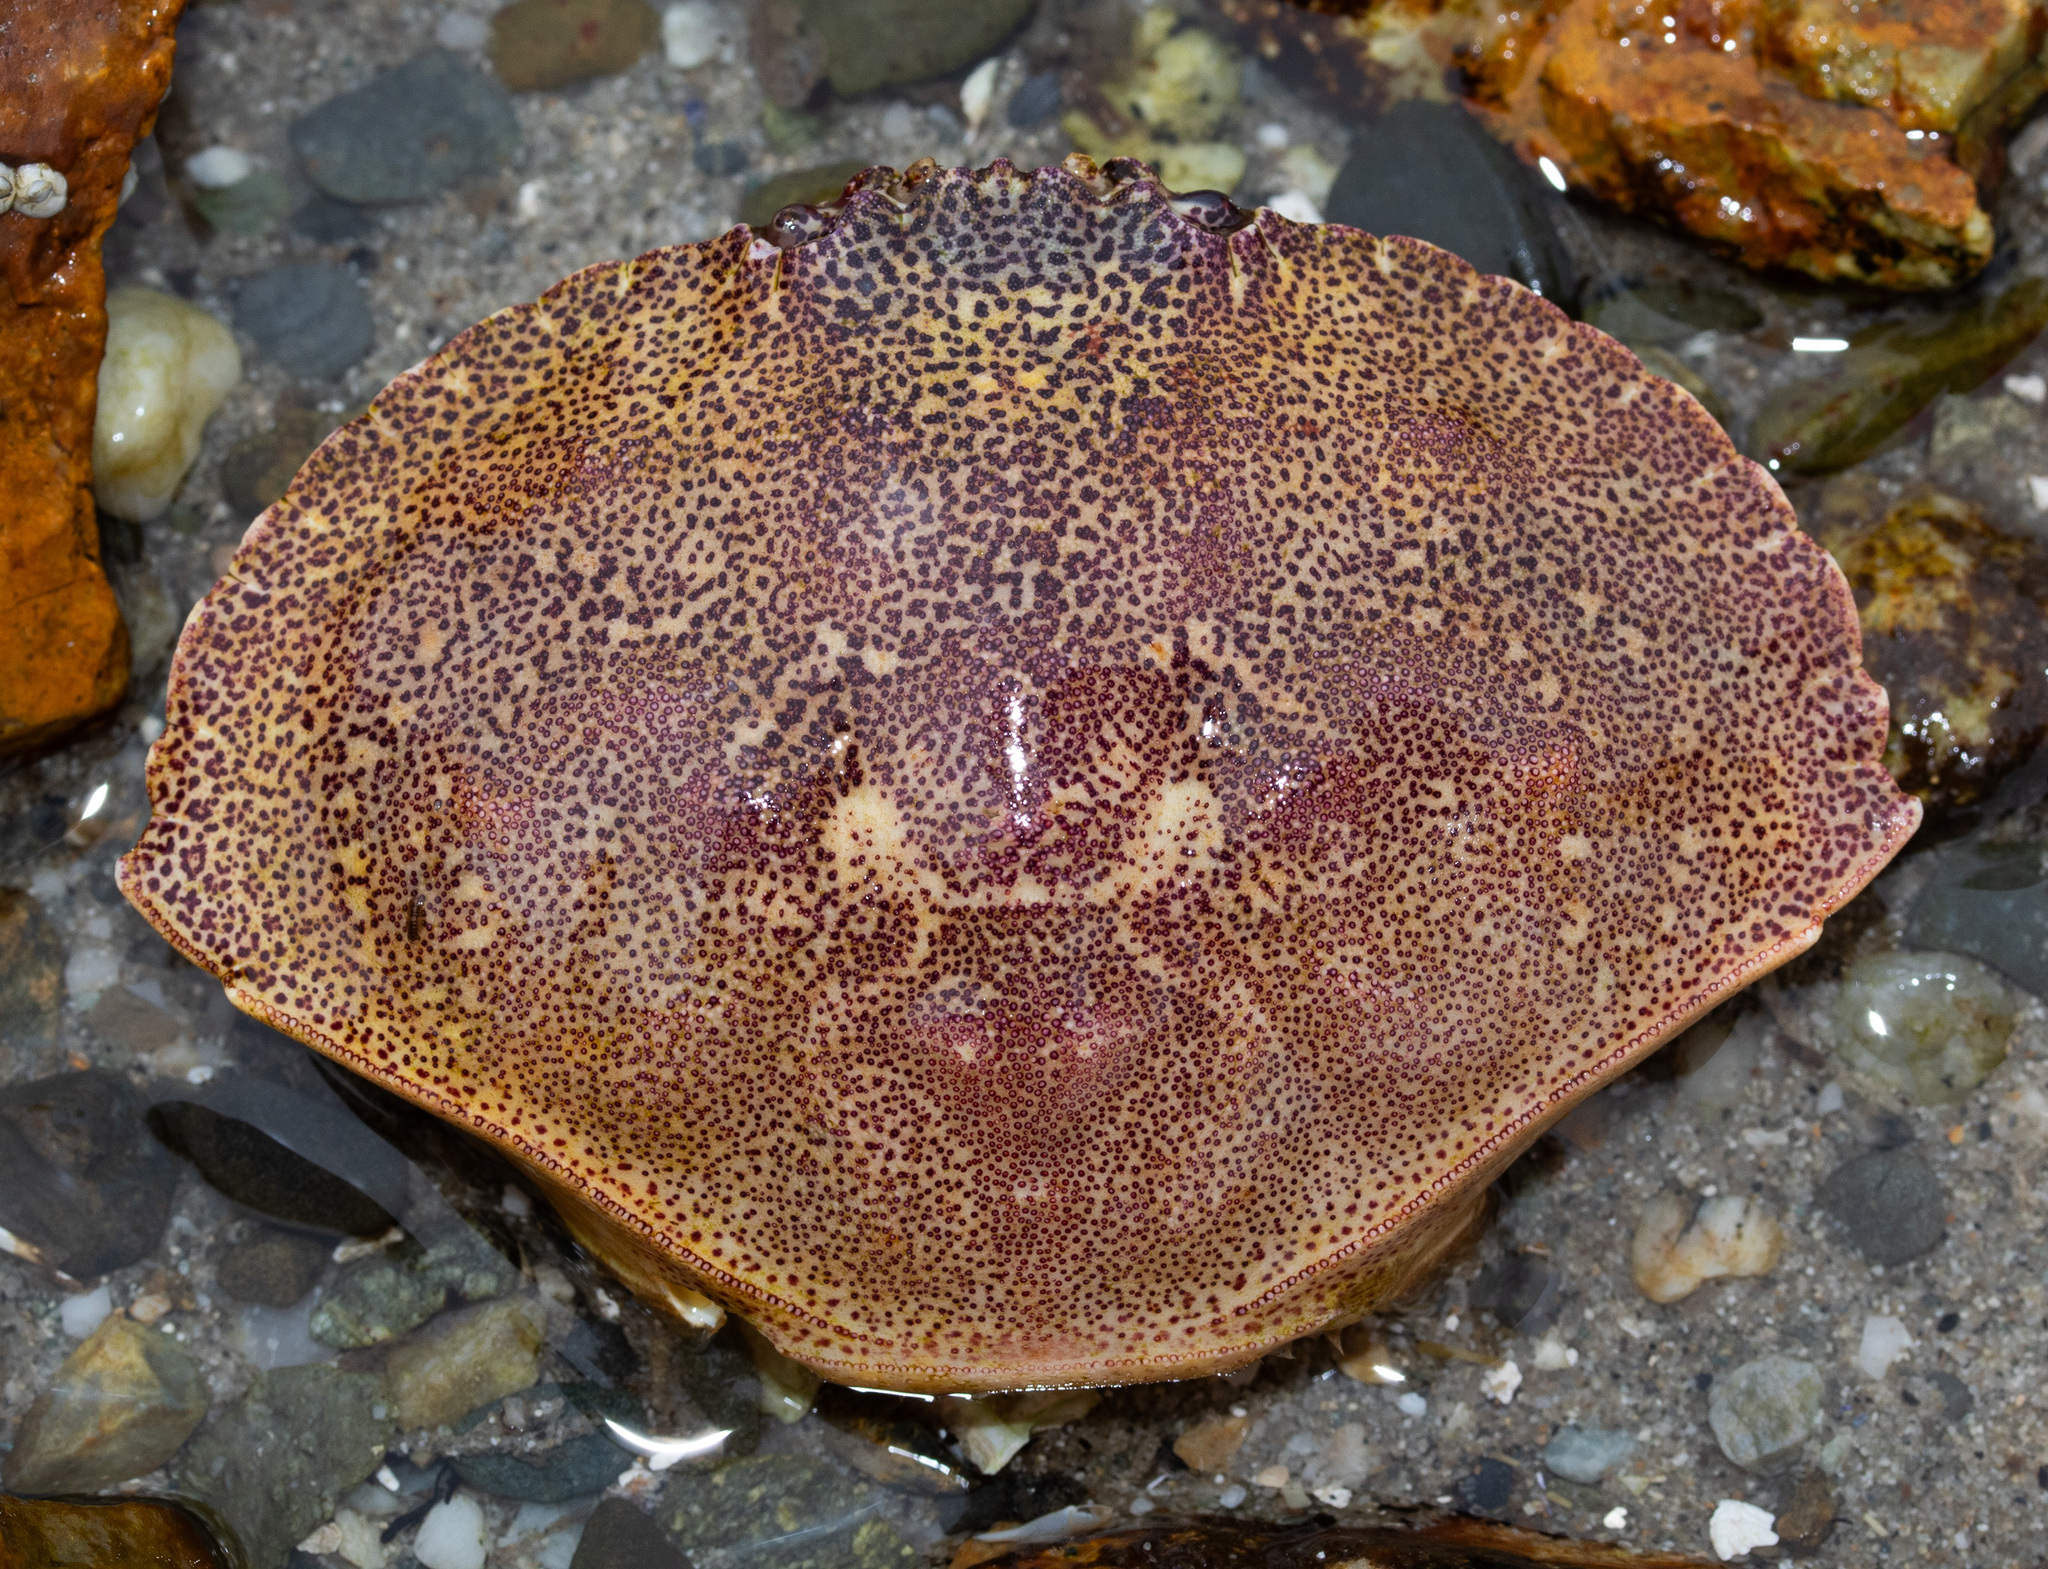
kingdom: Animalia
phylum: Arthropoda
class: Malacostraca
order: Decapoda
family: Cancridae
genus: Cancer
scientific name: Cancer irroratus
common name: Atlantic rock crab
